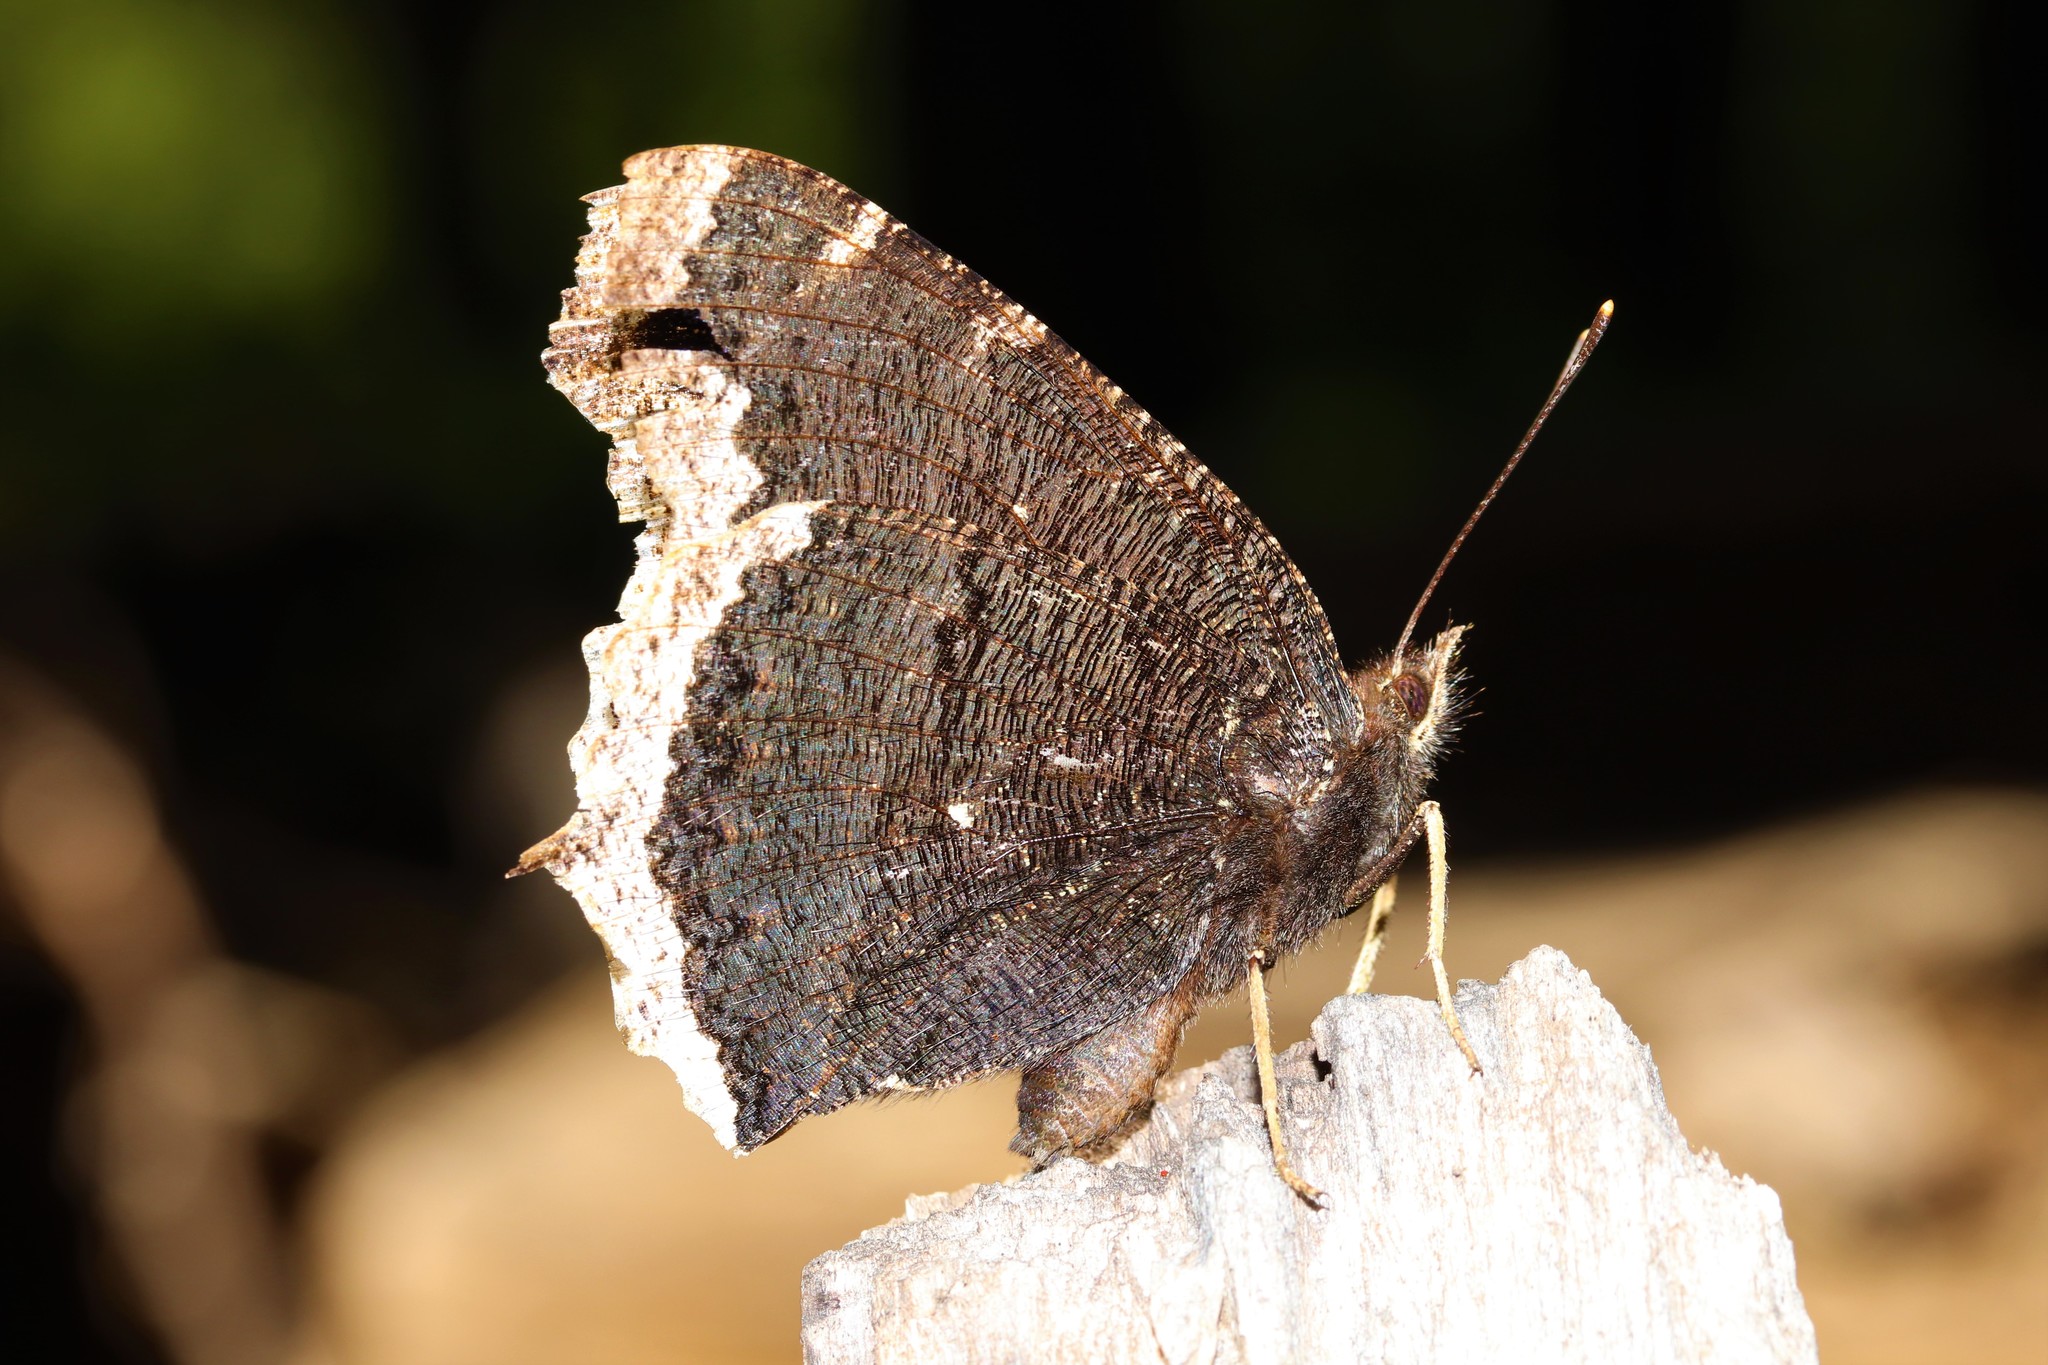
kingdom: Animalia
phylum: Arthropoda
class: Insecta
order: Lepidoptera
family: Nymphalidae
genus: Nymphalis
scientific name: Nymphalis antiopa
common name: Camberwell beauty
